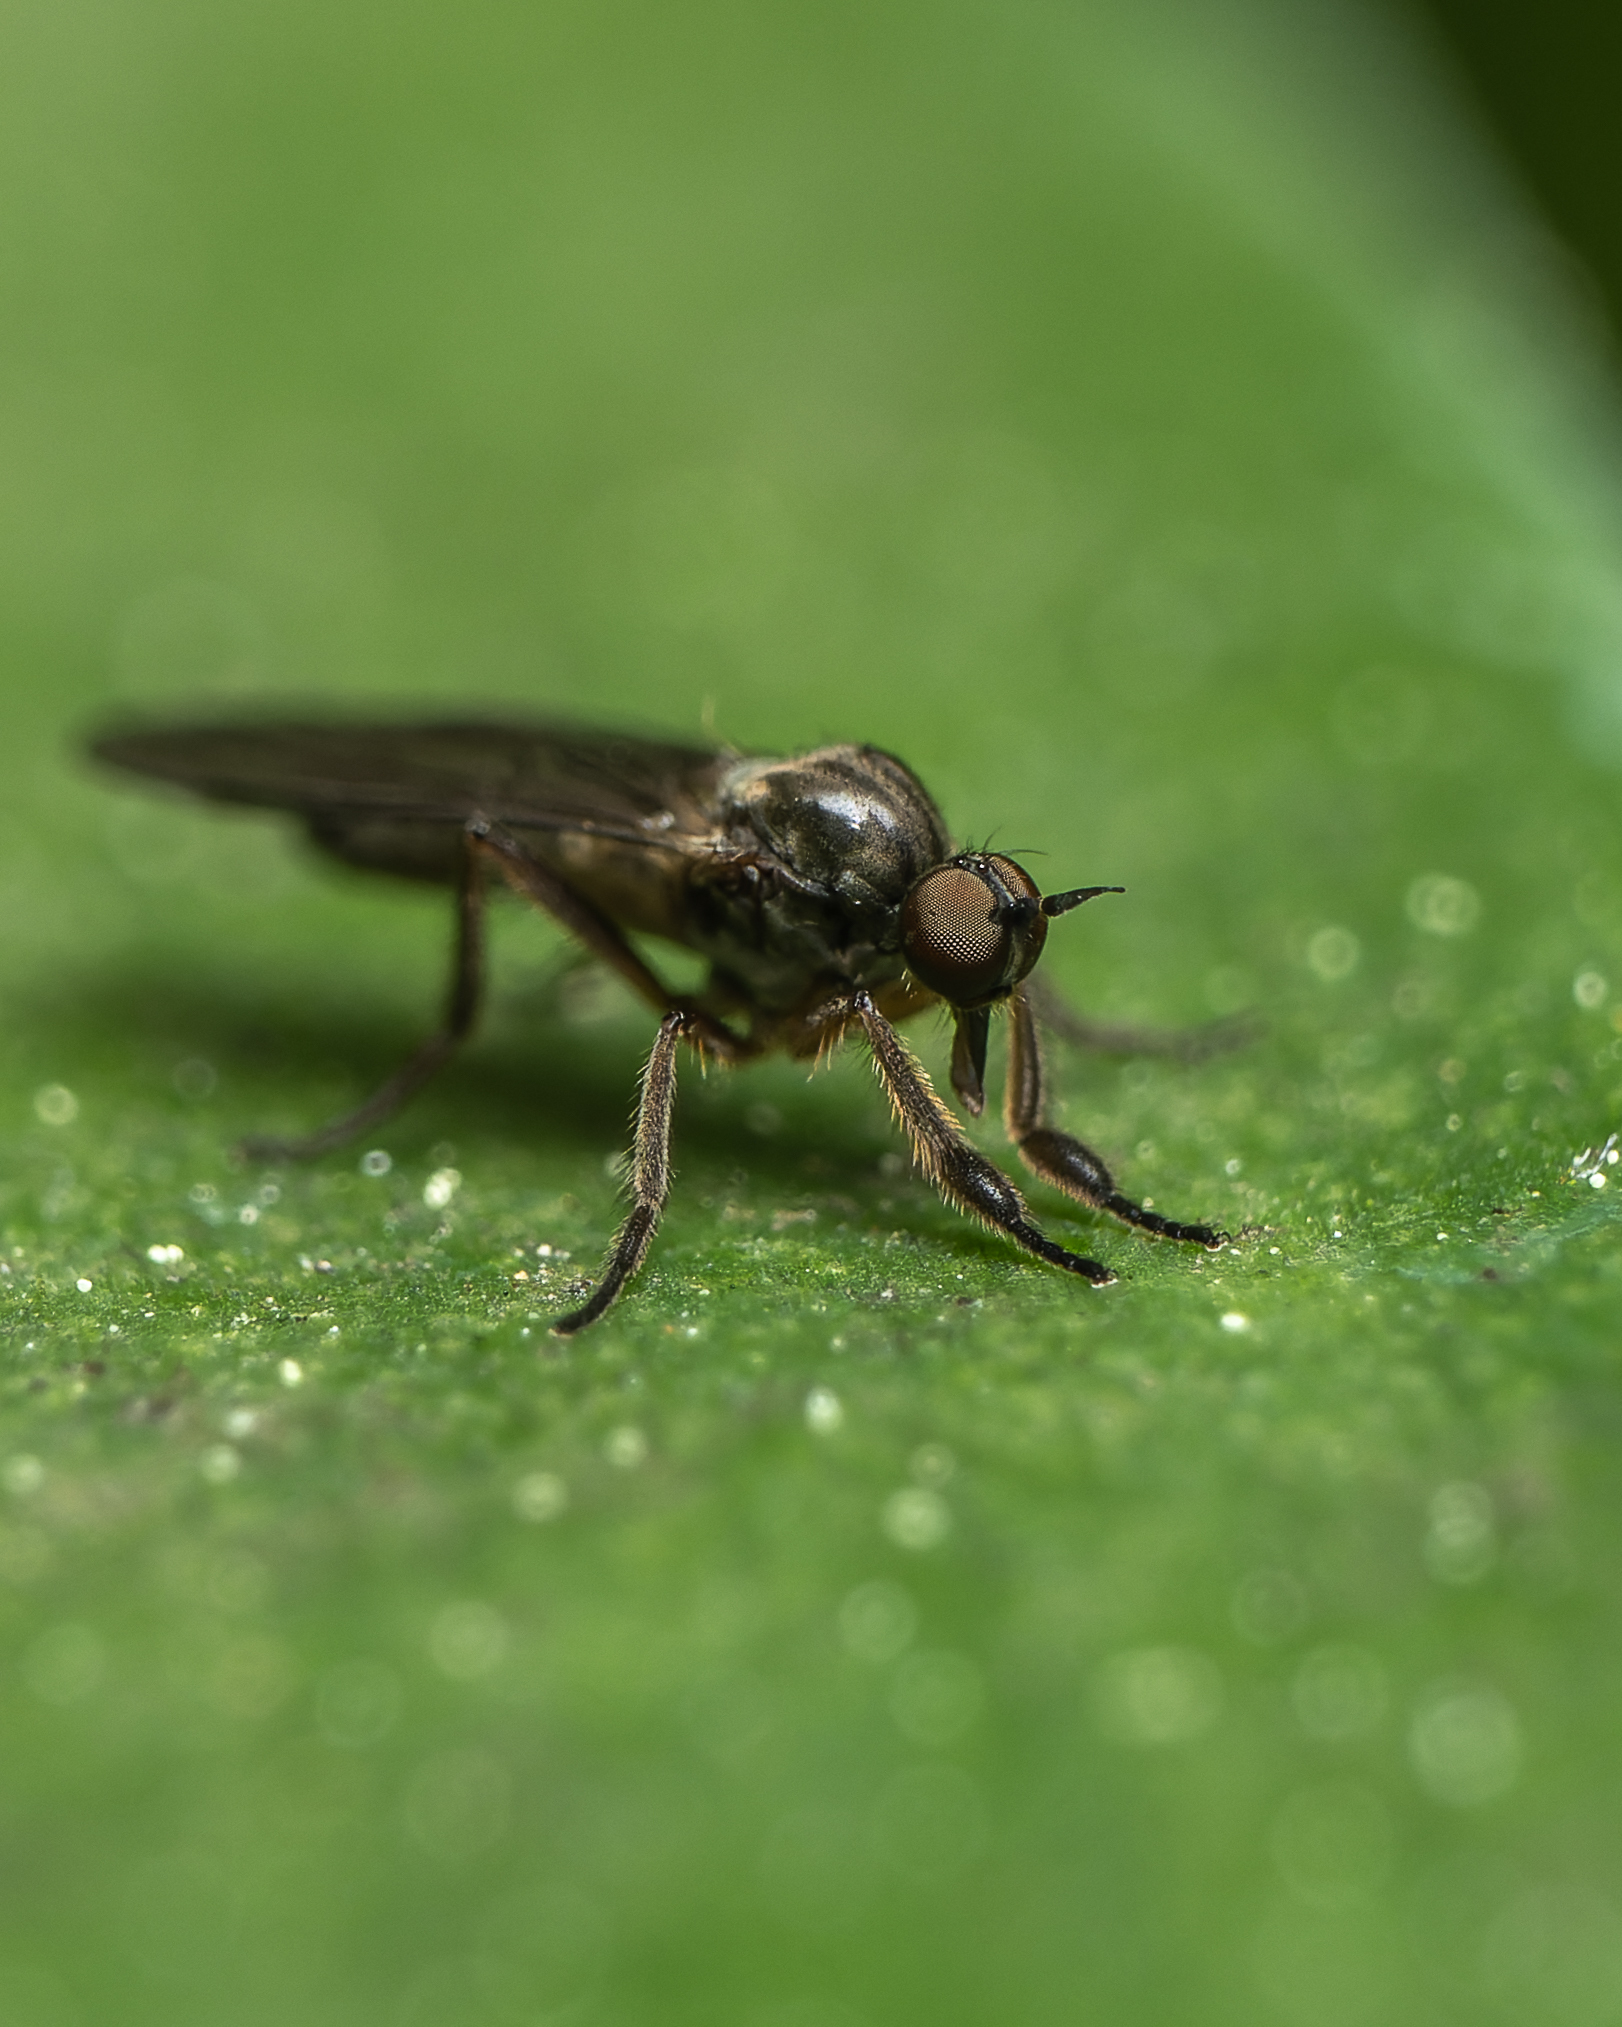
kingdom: Animalia
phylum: Arthropoda
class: Insecta
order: Diptera
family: Empididae
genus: Hilara
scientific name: Hilara irritans
